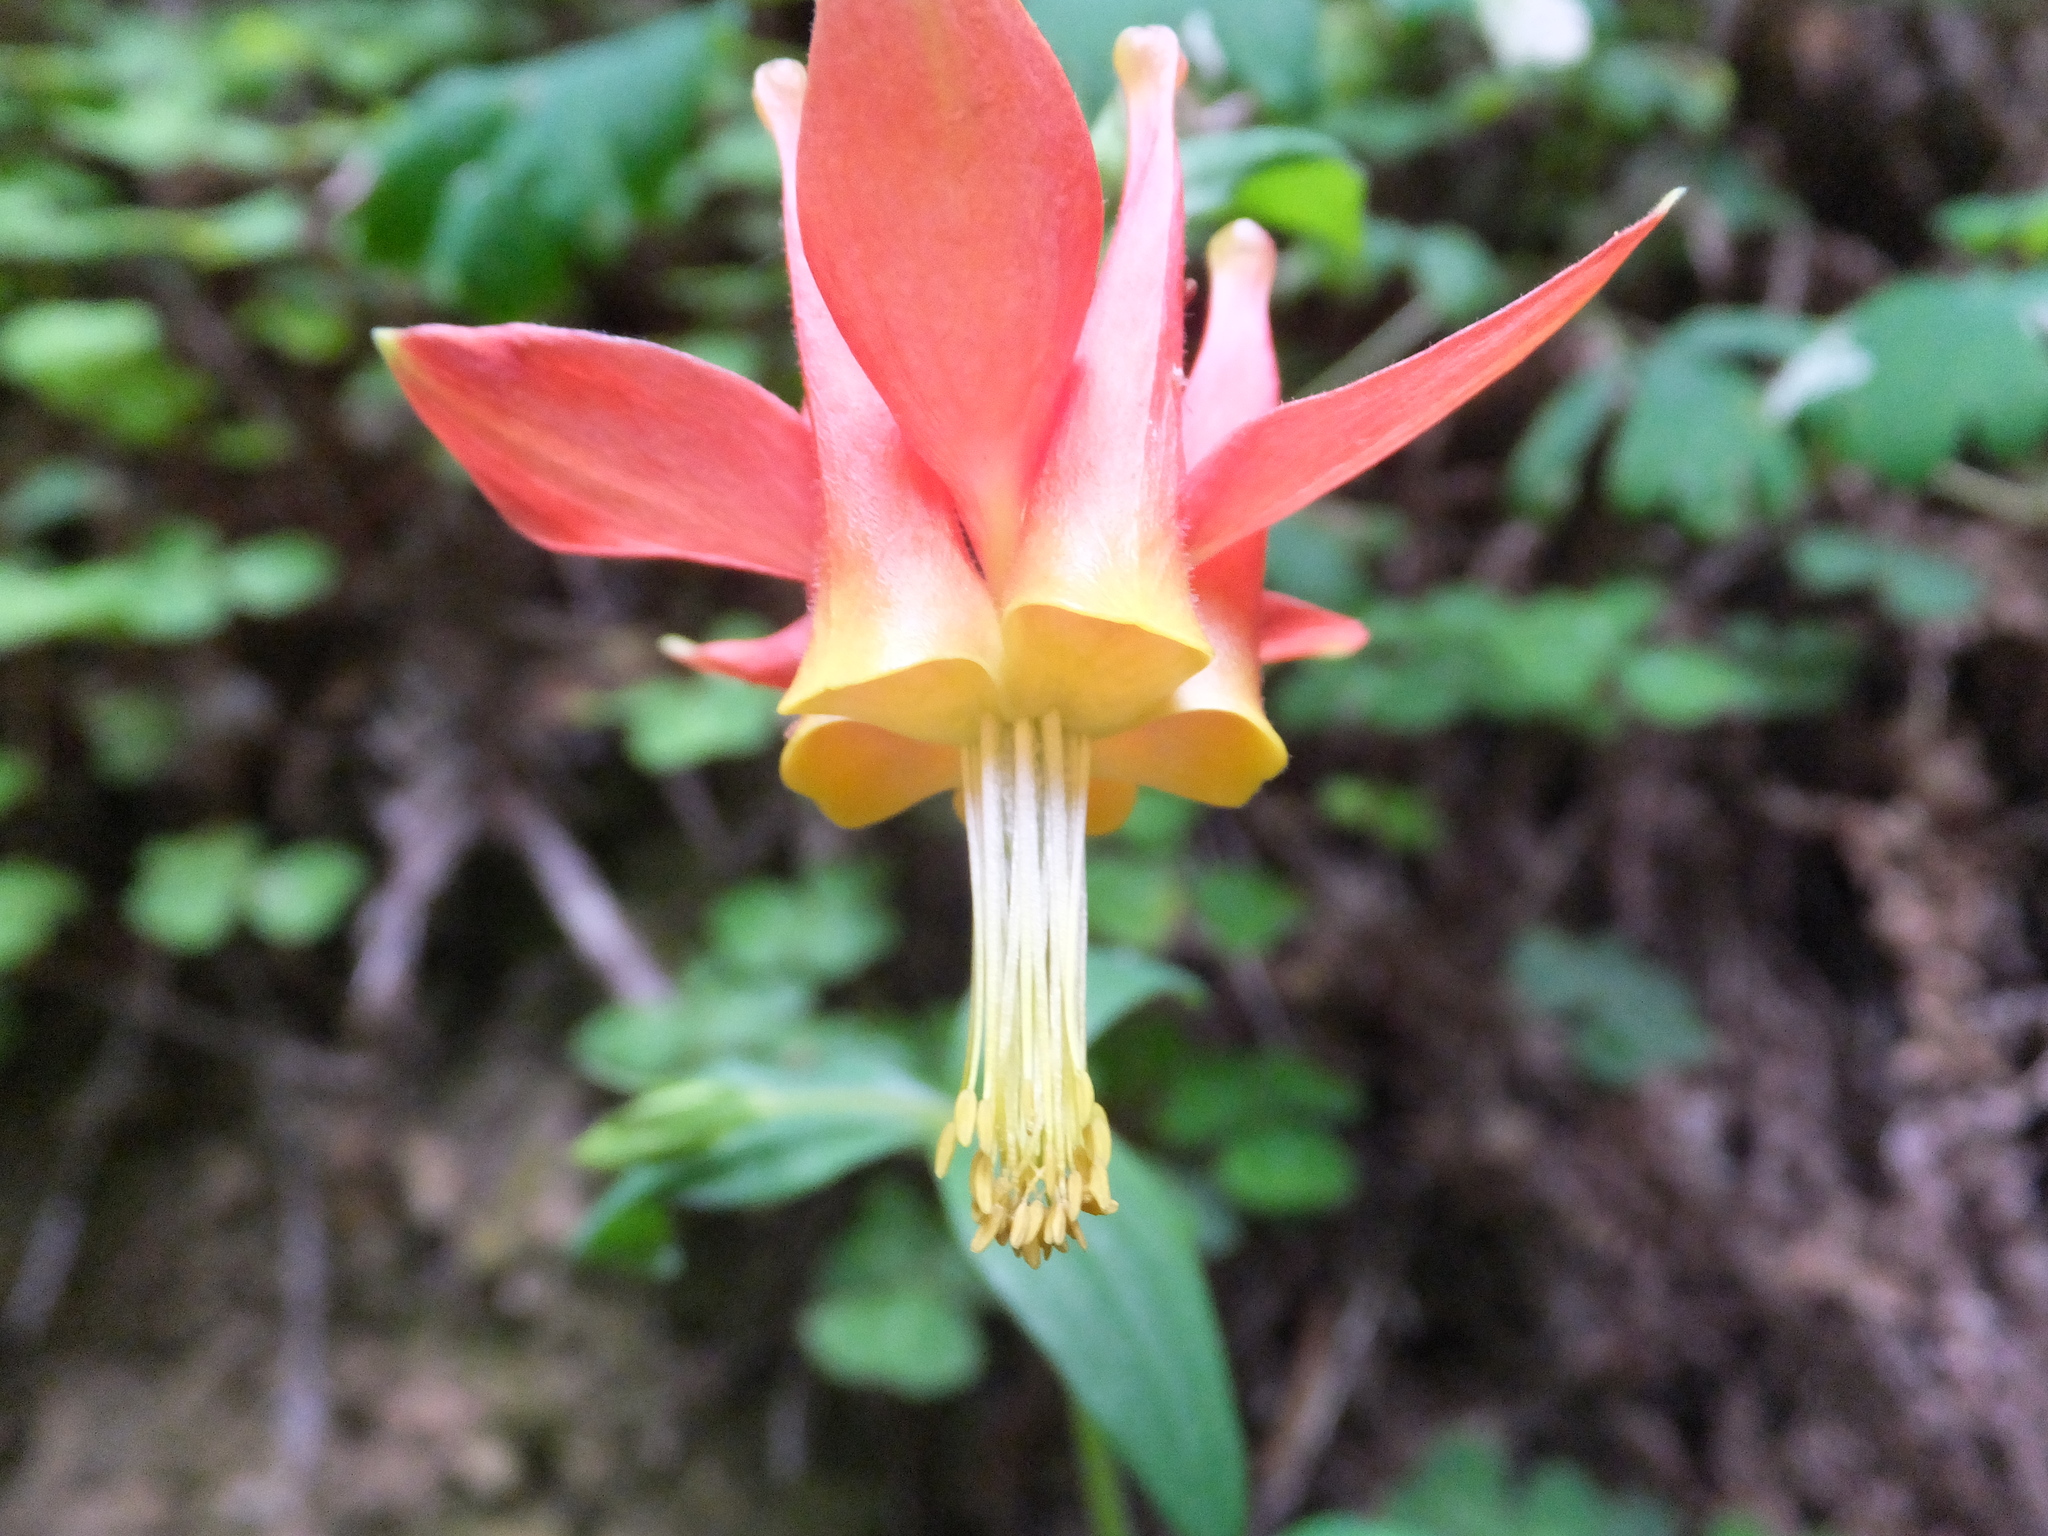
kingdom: Plantae
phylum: Tracheophyta
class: Magnoliopsida
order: Ranunculales
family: Ranunculaceae
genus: Aquilegia
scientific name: Aquilegia formosa
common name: Sitka columbine
